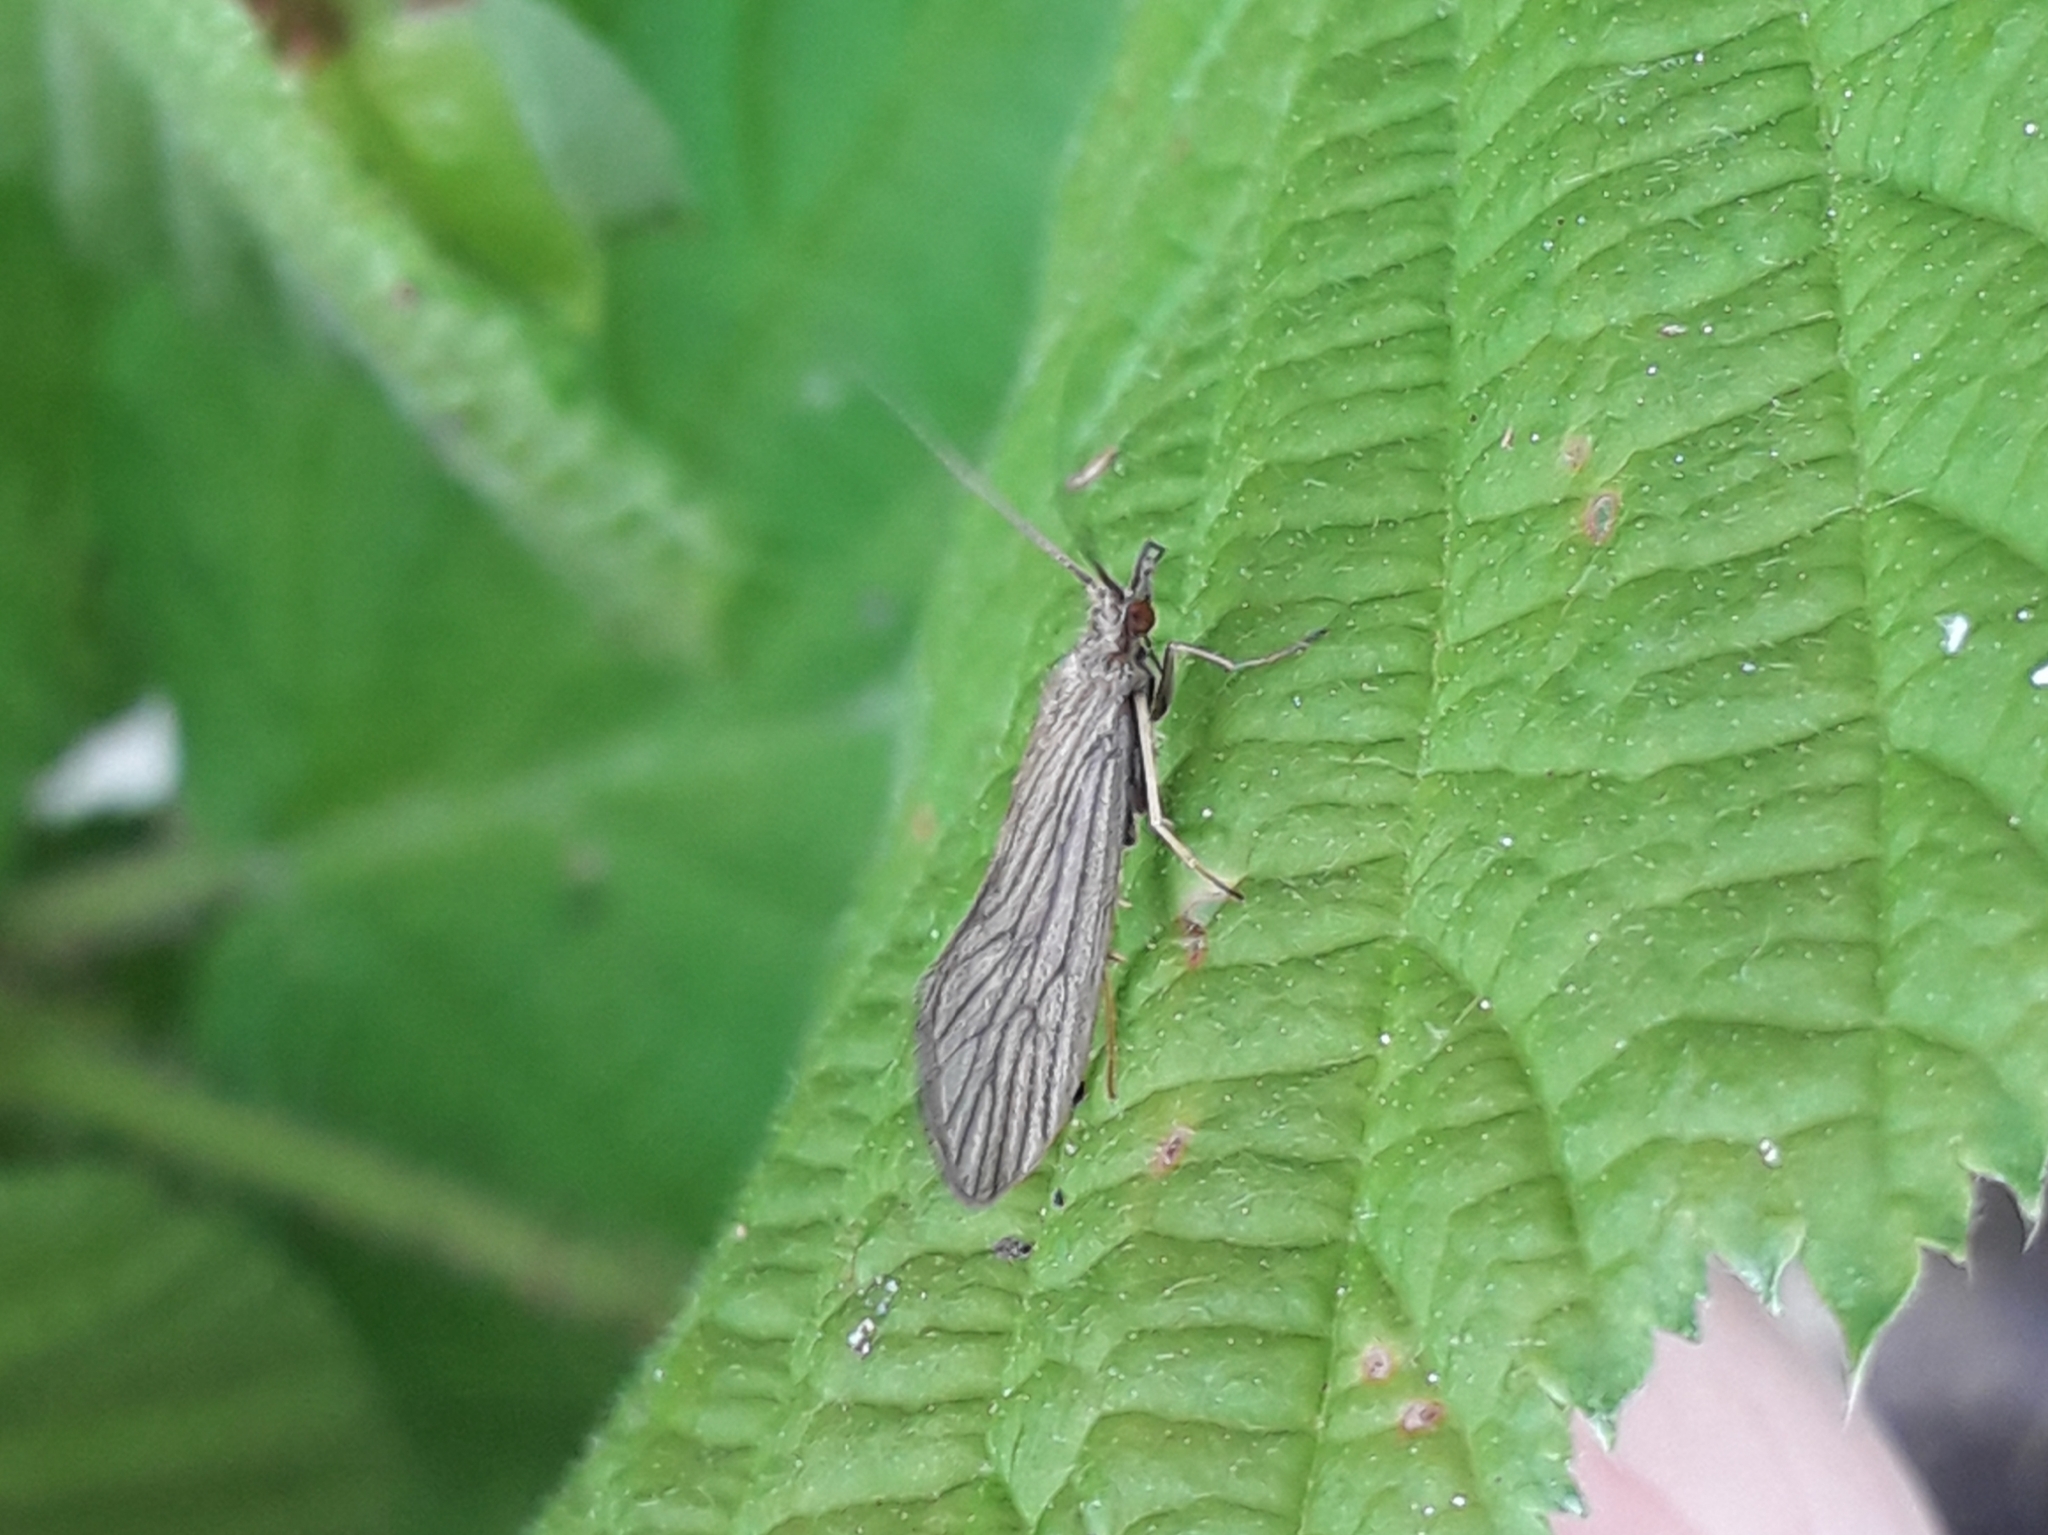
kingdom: Animalia
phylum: Arthropoda
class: Insecta
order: Trichoptera
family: Psychomyiidae
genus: Tinodes
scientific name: Tinodes waeneri
